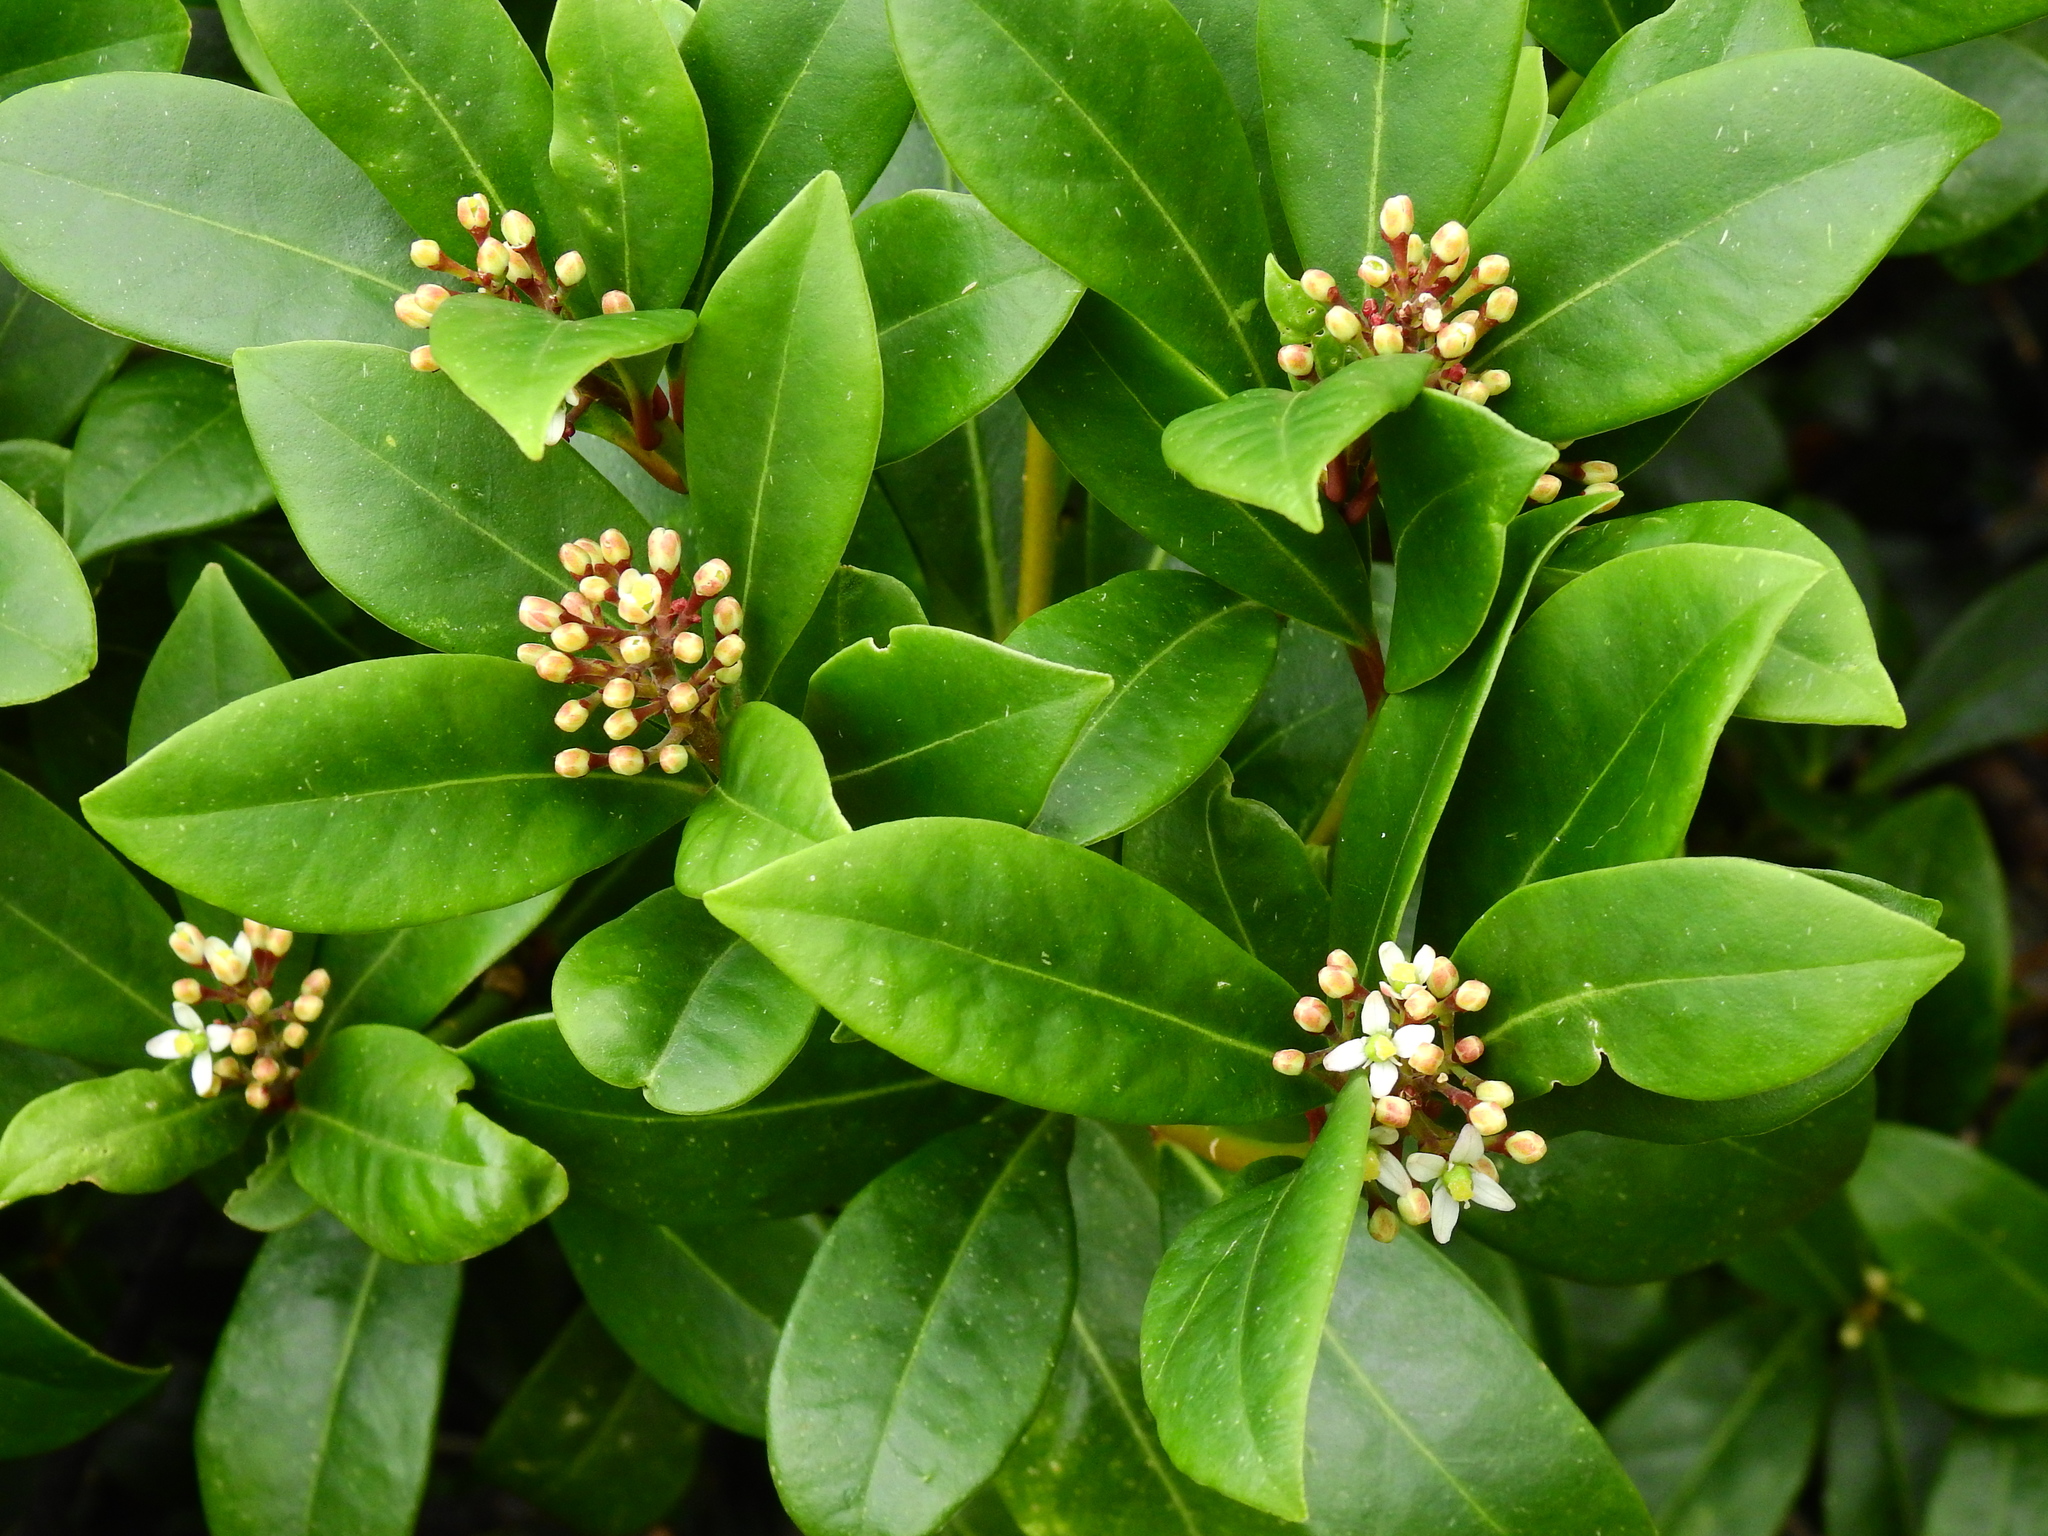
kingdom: Plantae
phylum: Tracheophyta
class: Magnoliopsida
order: Sapindales
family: Rutaceae
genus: Skimmia
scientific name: Skimmia japonica
